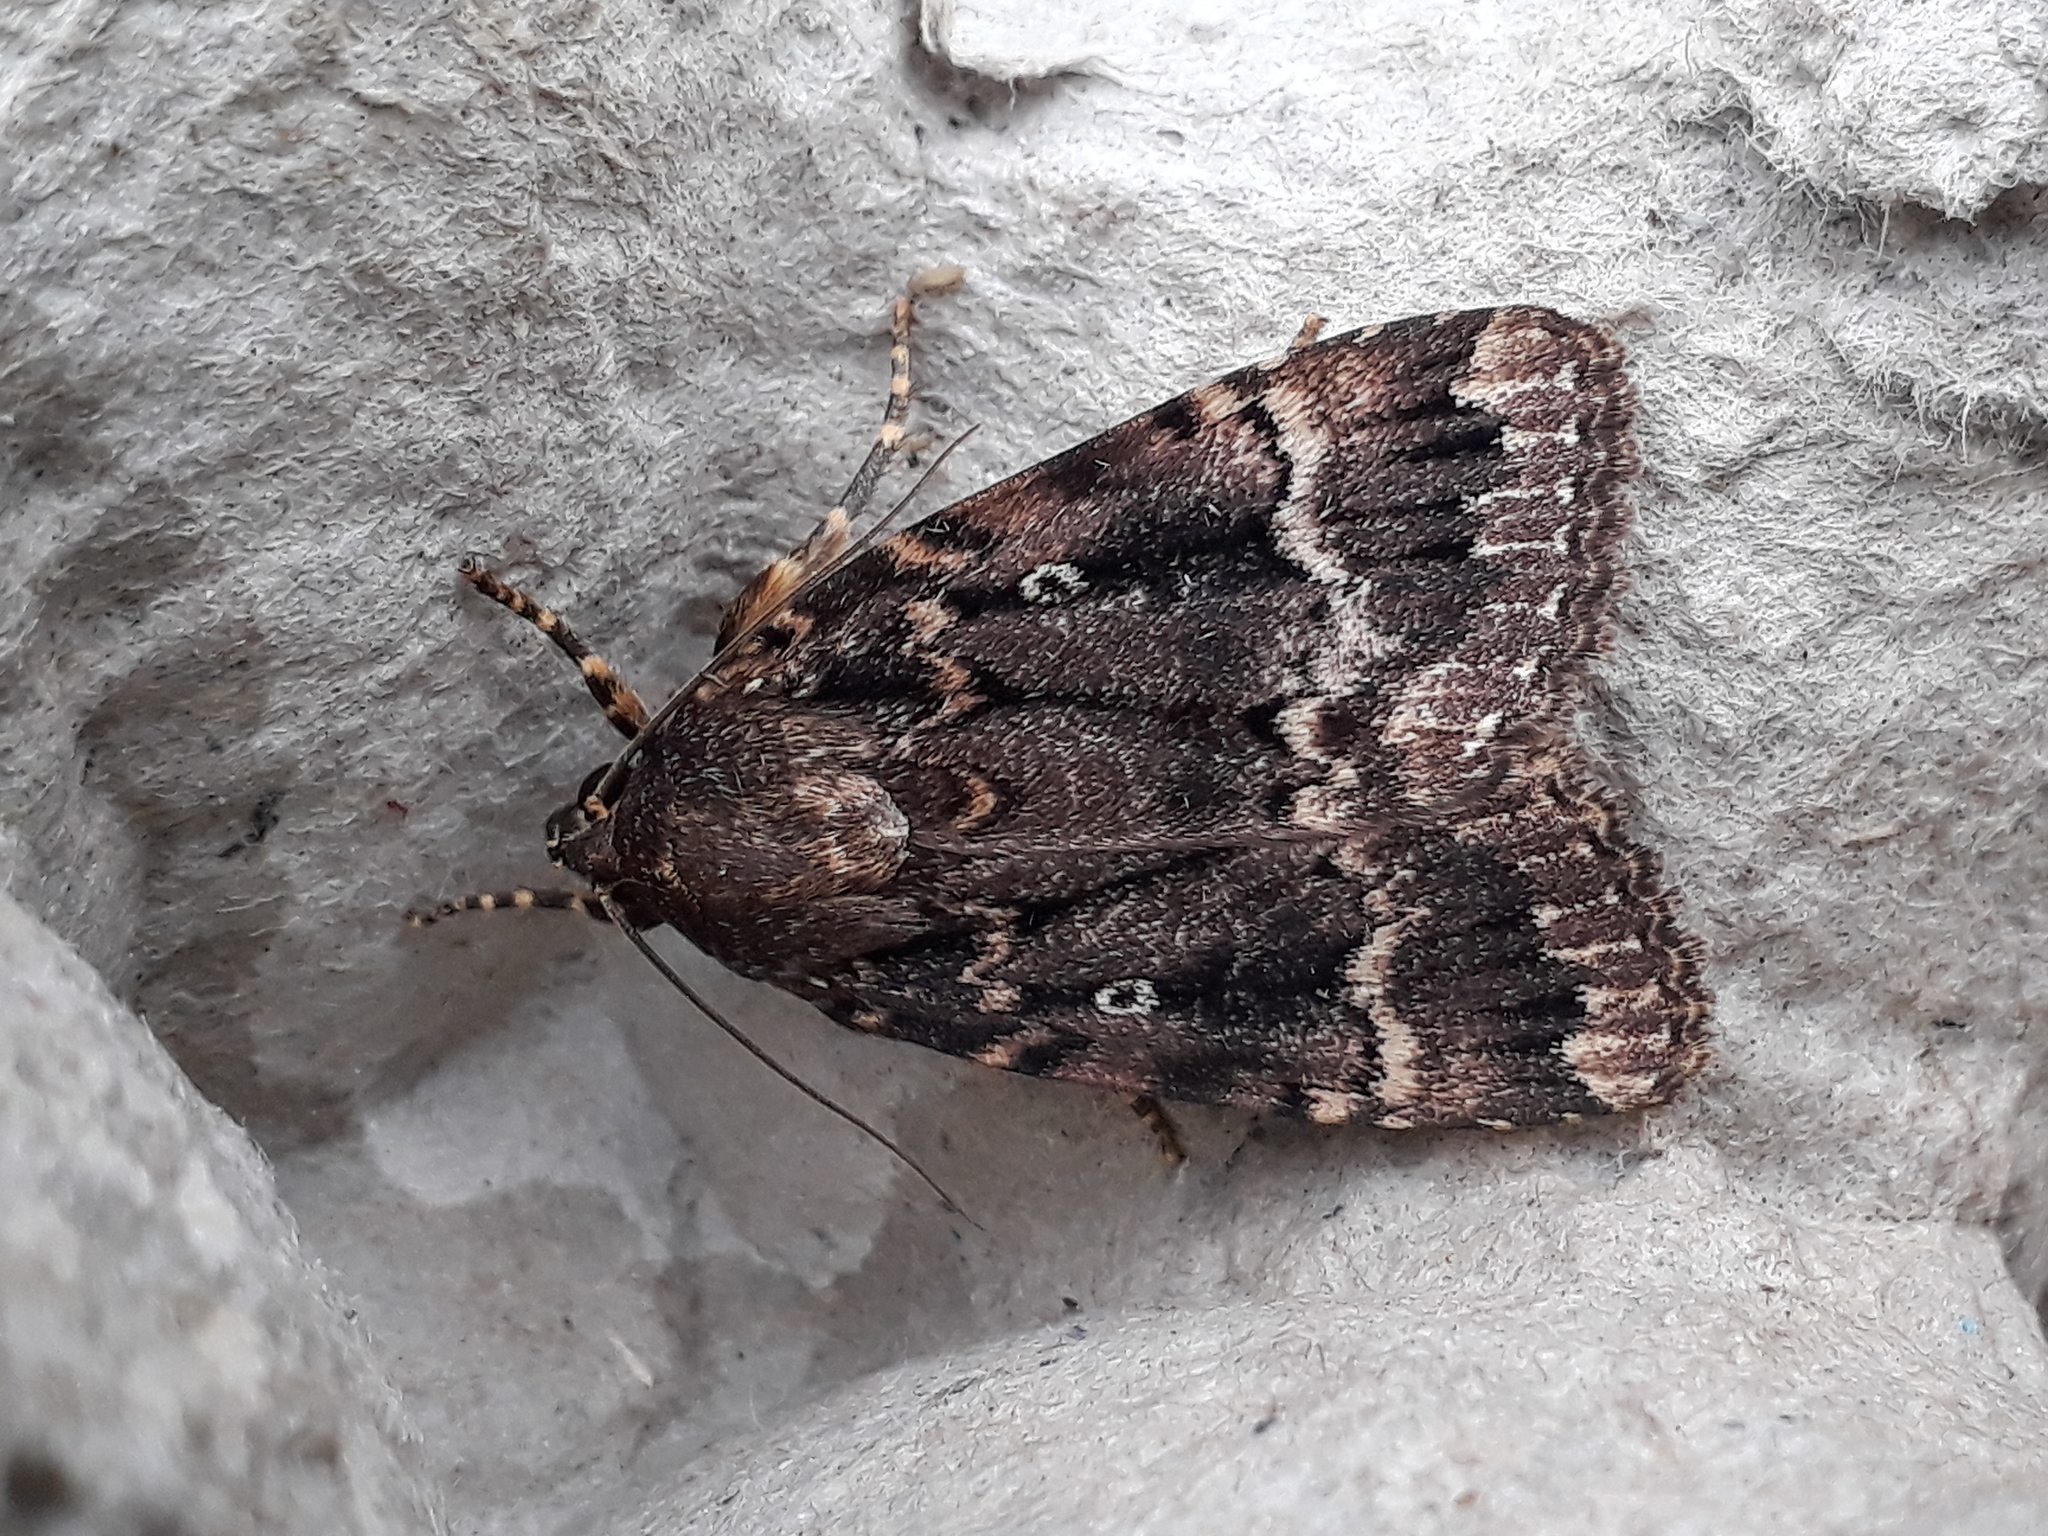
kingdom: Animalia
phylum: Arthropoda
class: Insecta
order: Lepidoptera
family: Noctuidae
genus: Amphipyra
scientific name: Amphipyra pyramidea
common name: Copper underwing
